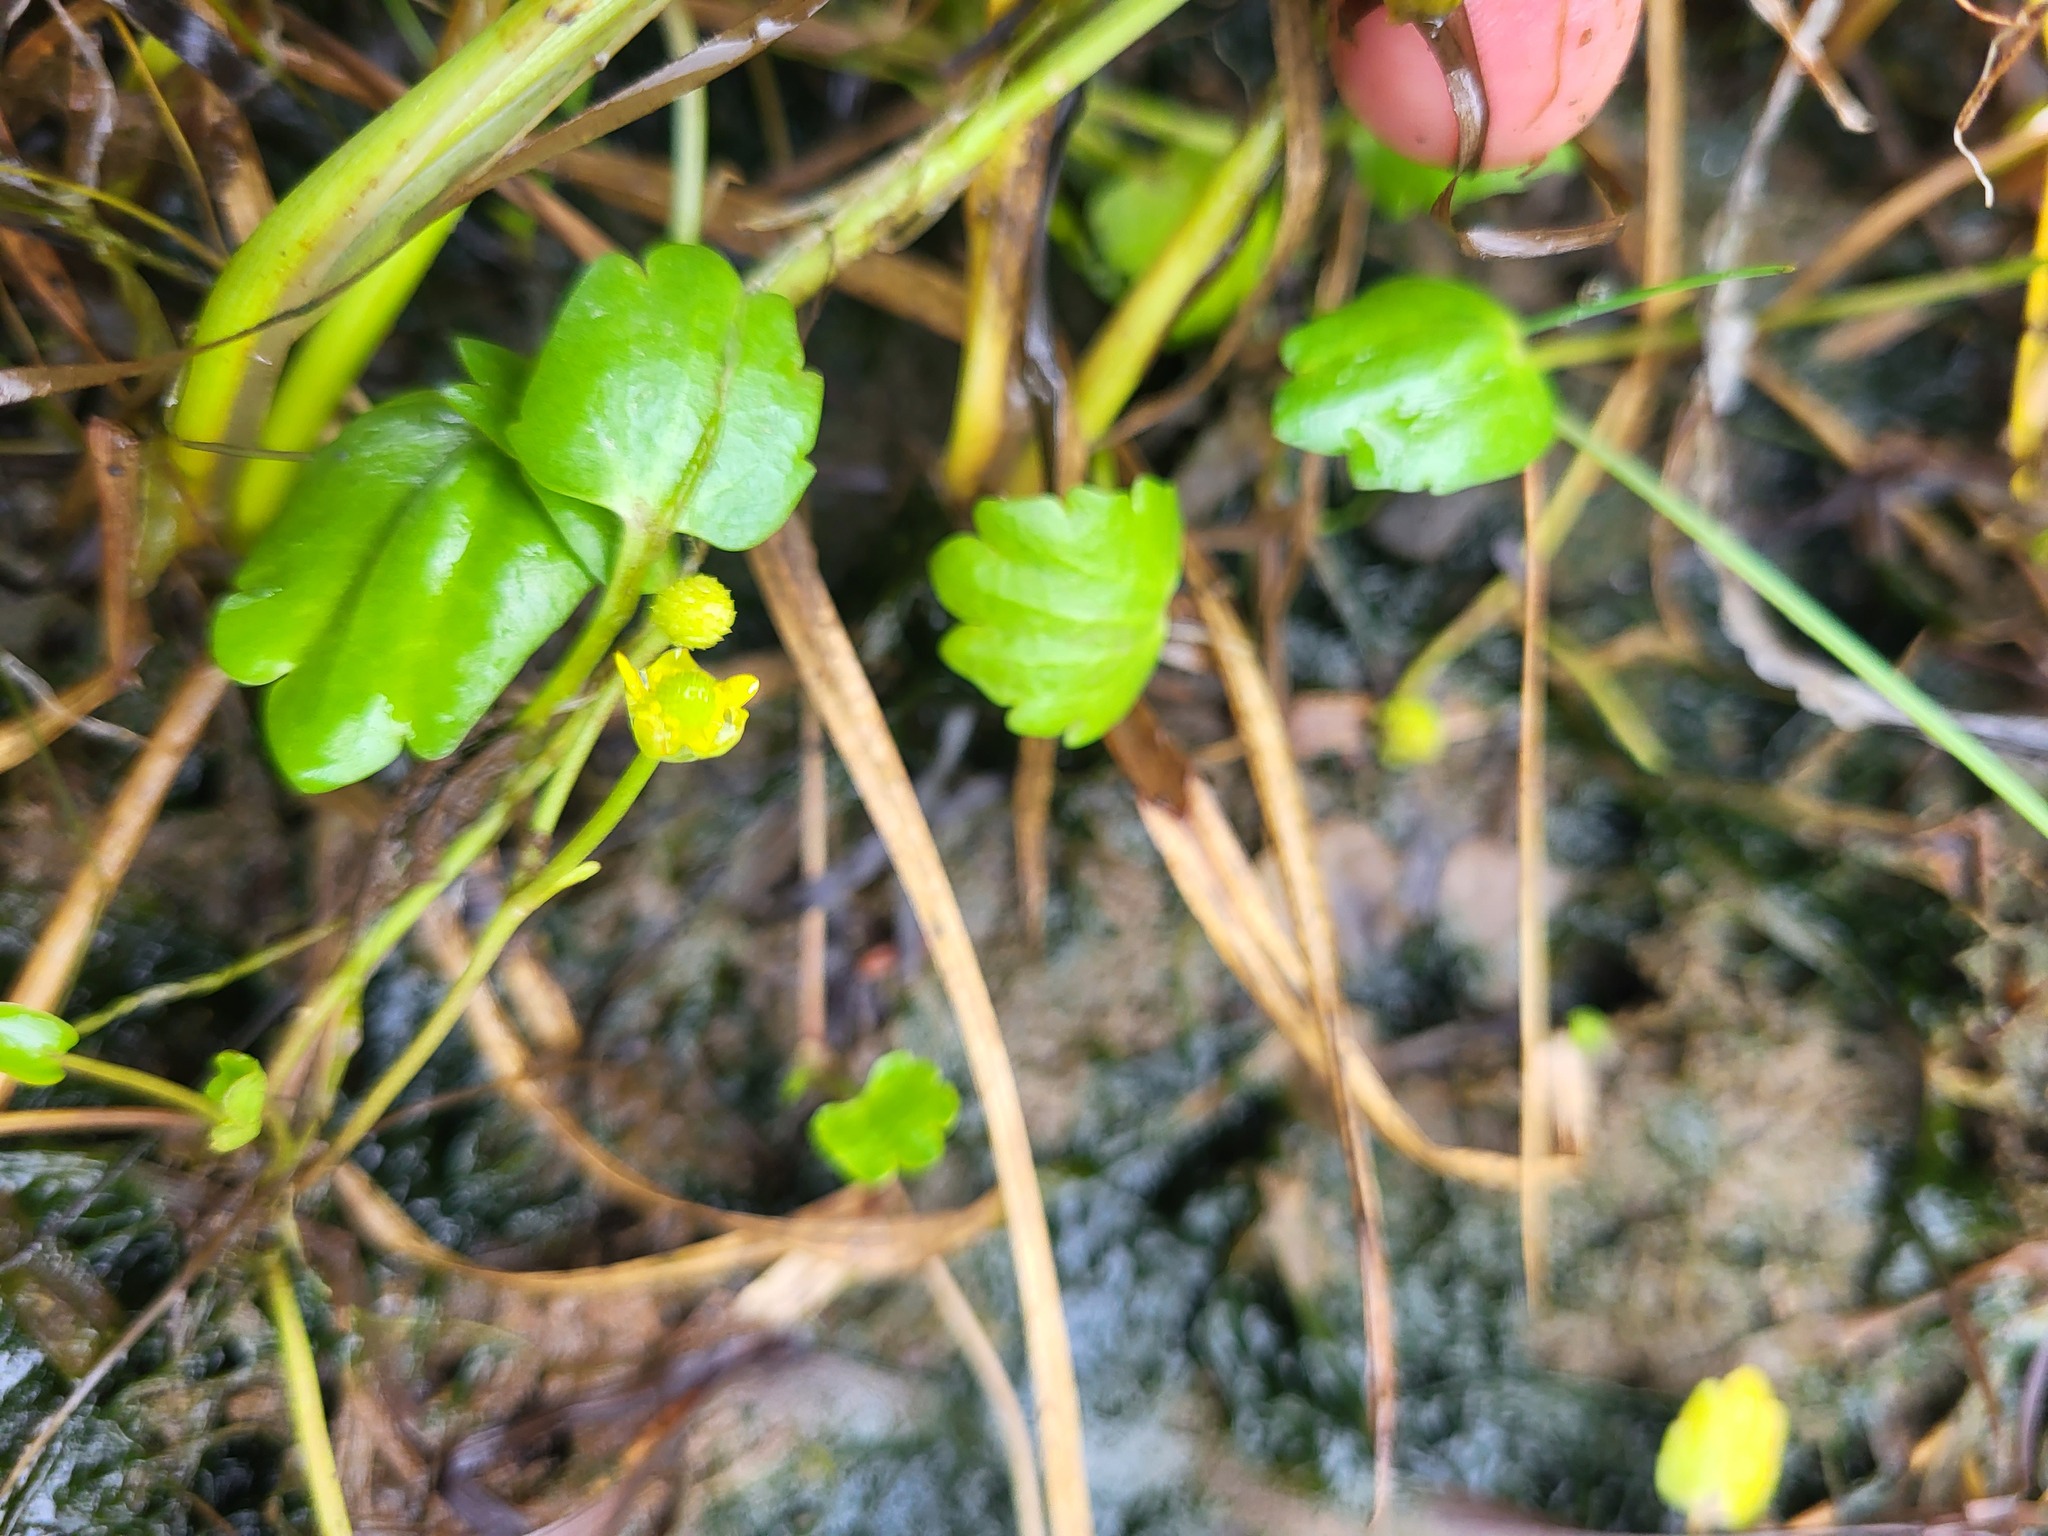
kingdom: Plantae
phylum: Tracheophyta
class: Magnoliopsida
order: Ranunculales
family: Ranunculaceae
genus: Halerpestes
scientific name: Halerpestes cymbalaria
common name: Seaside crowfoot
